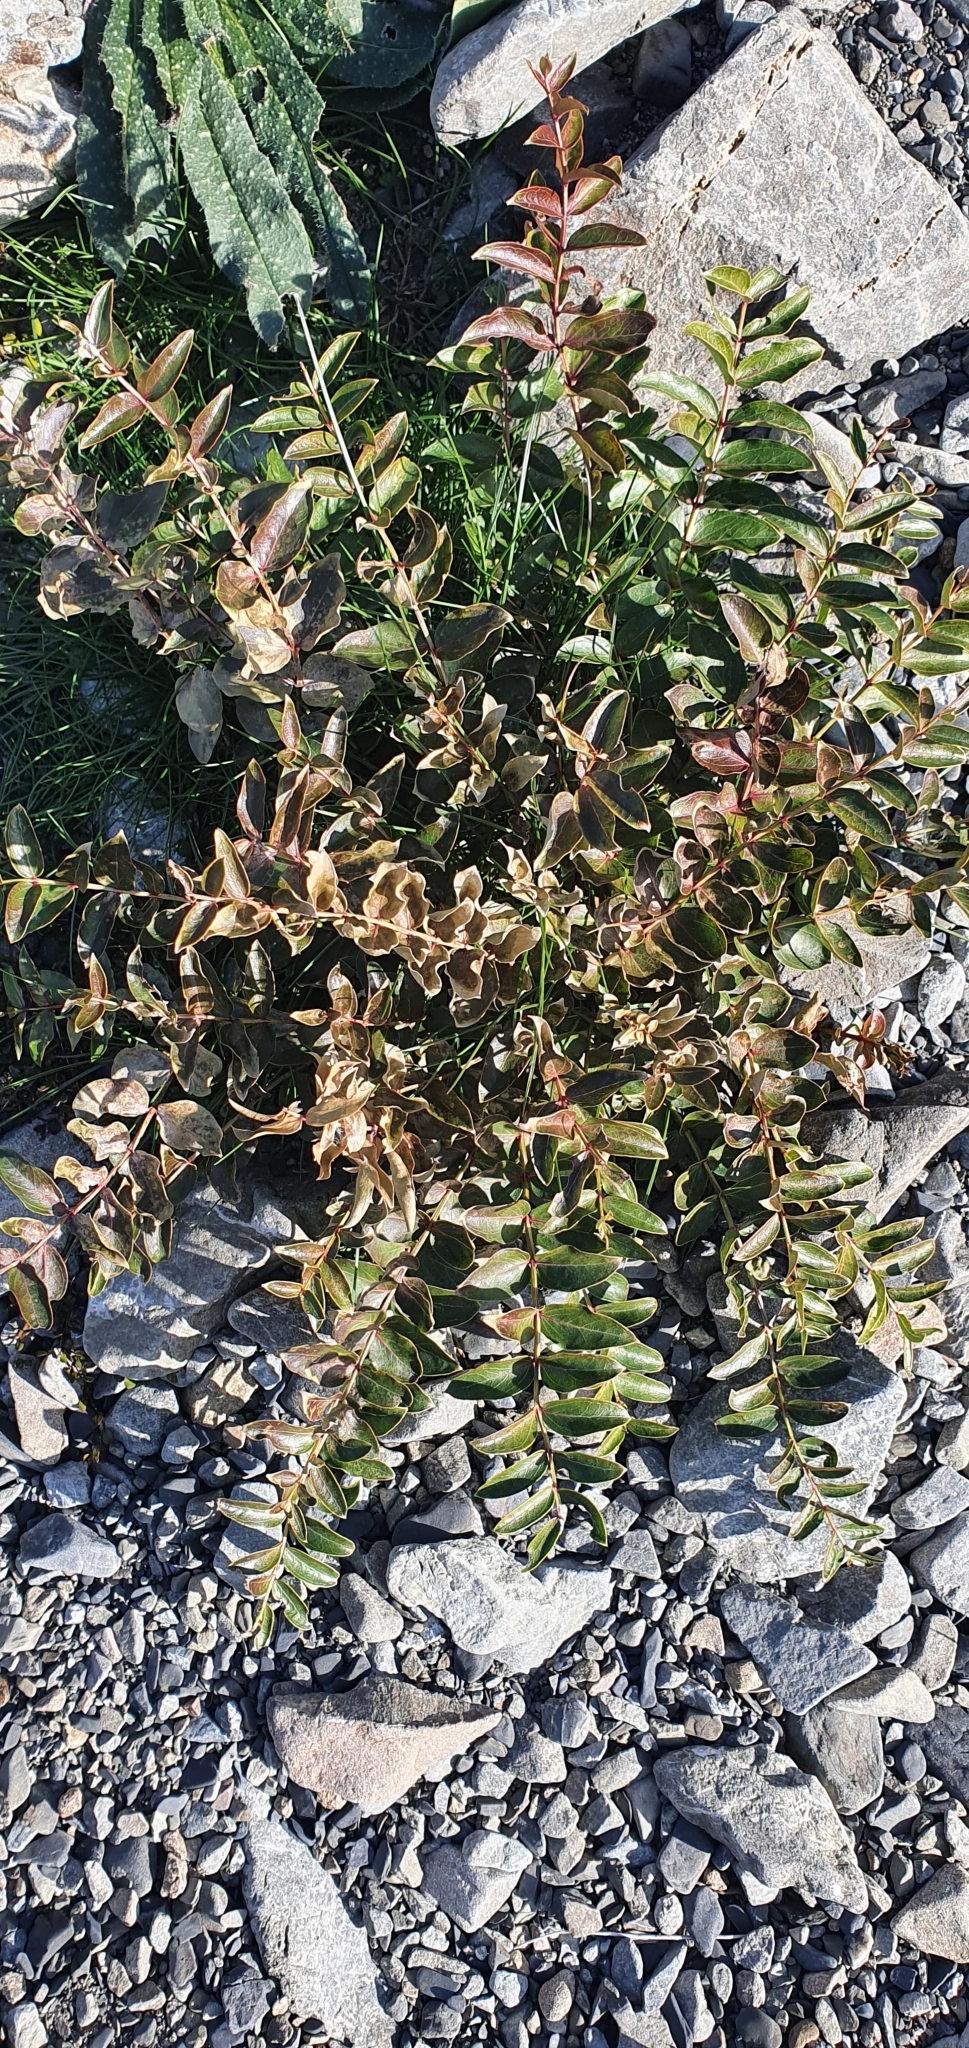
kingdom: Plantae
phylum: Tracheophyta
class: Magnoliopsida
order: Cucurbitales
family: Coriariaceae
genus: Coriaria
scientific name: Coriaria sarmentosa
